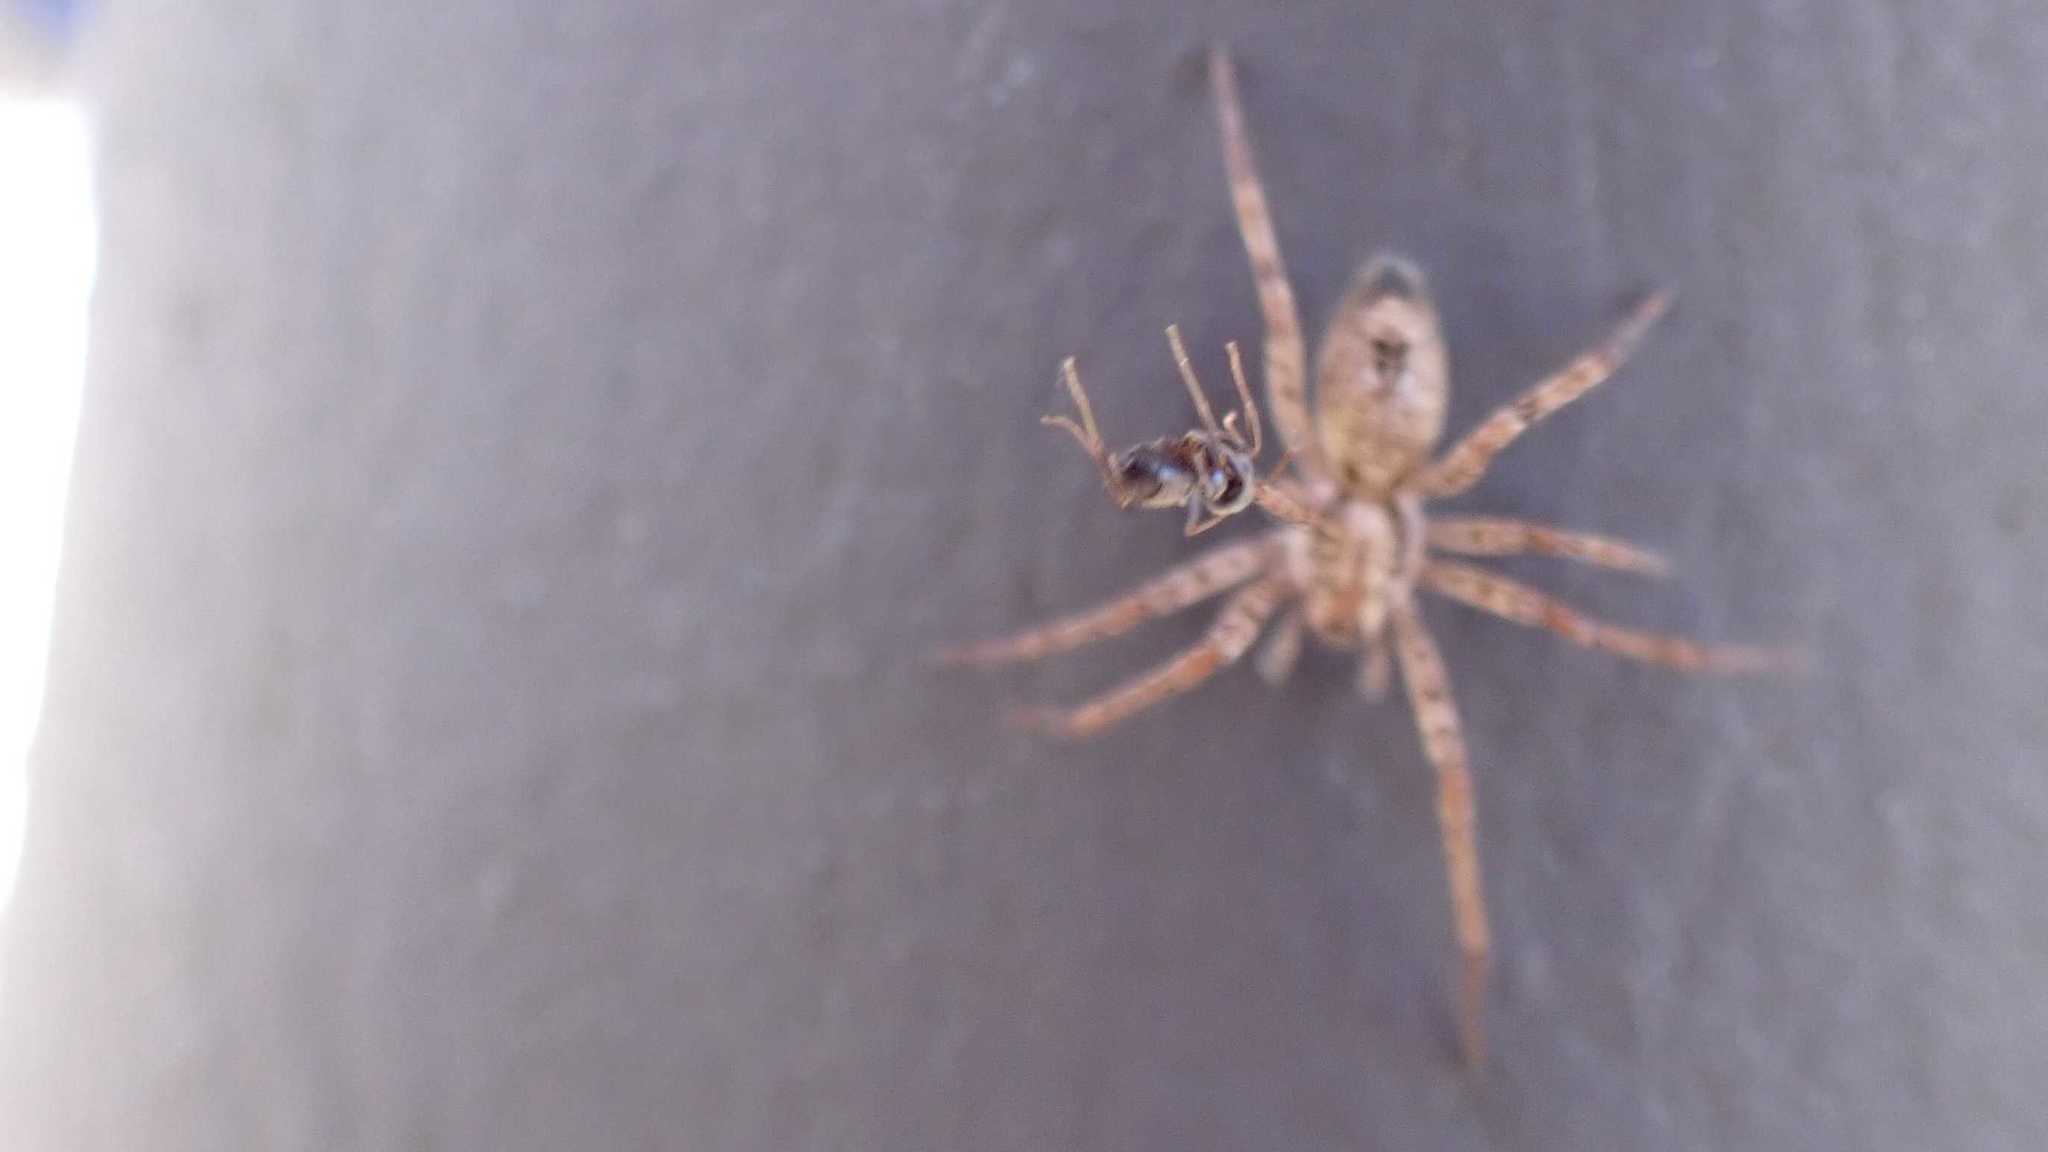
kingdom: Animalia
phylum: Arthropoda
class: Arachnida
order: Araneae
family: Anyphaenidae
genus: Anyphaena
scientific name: Anyphaena accentuata
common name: Buzzing spider
